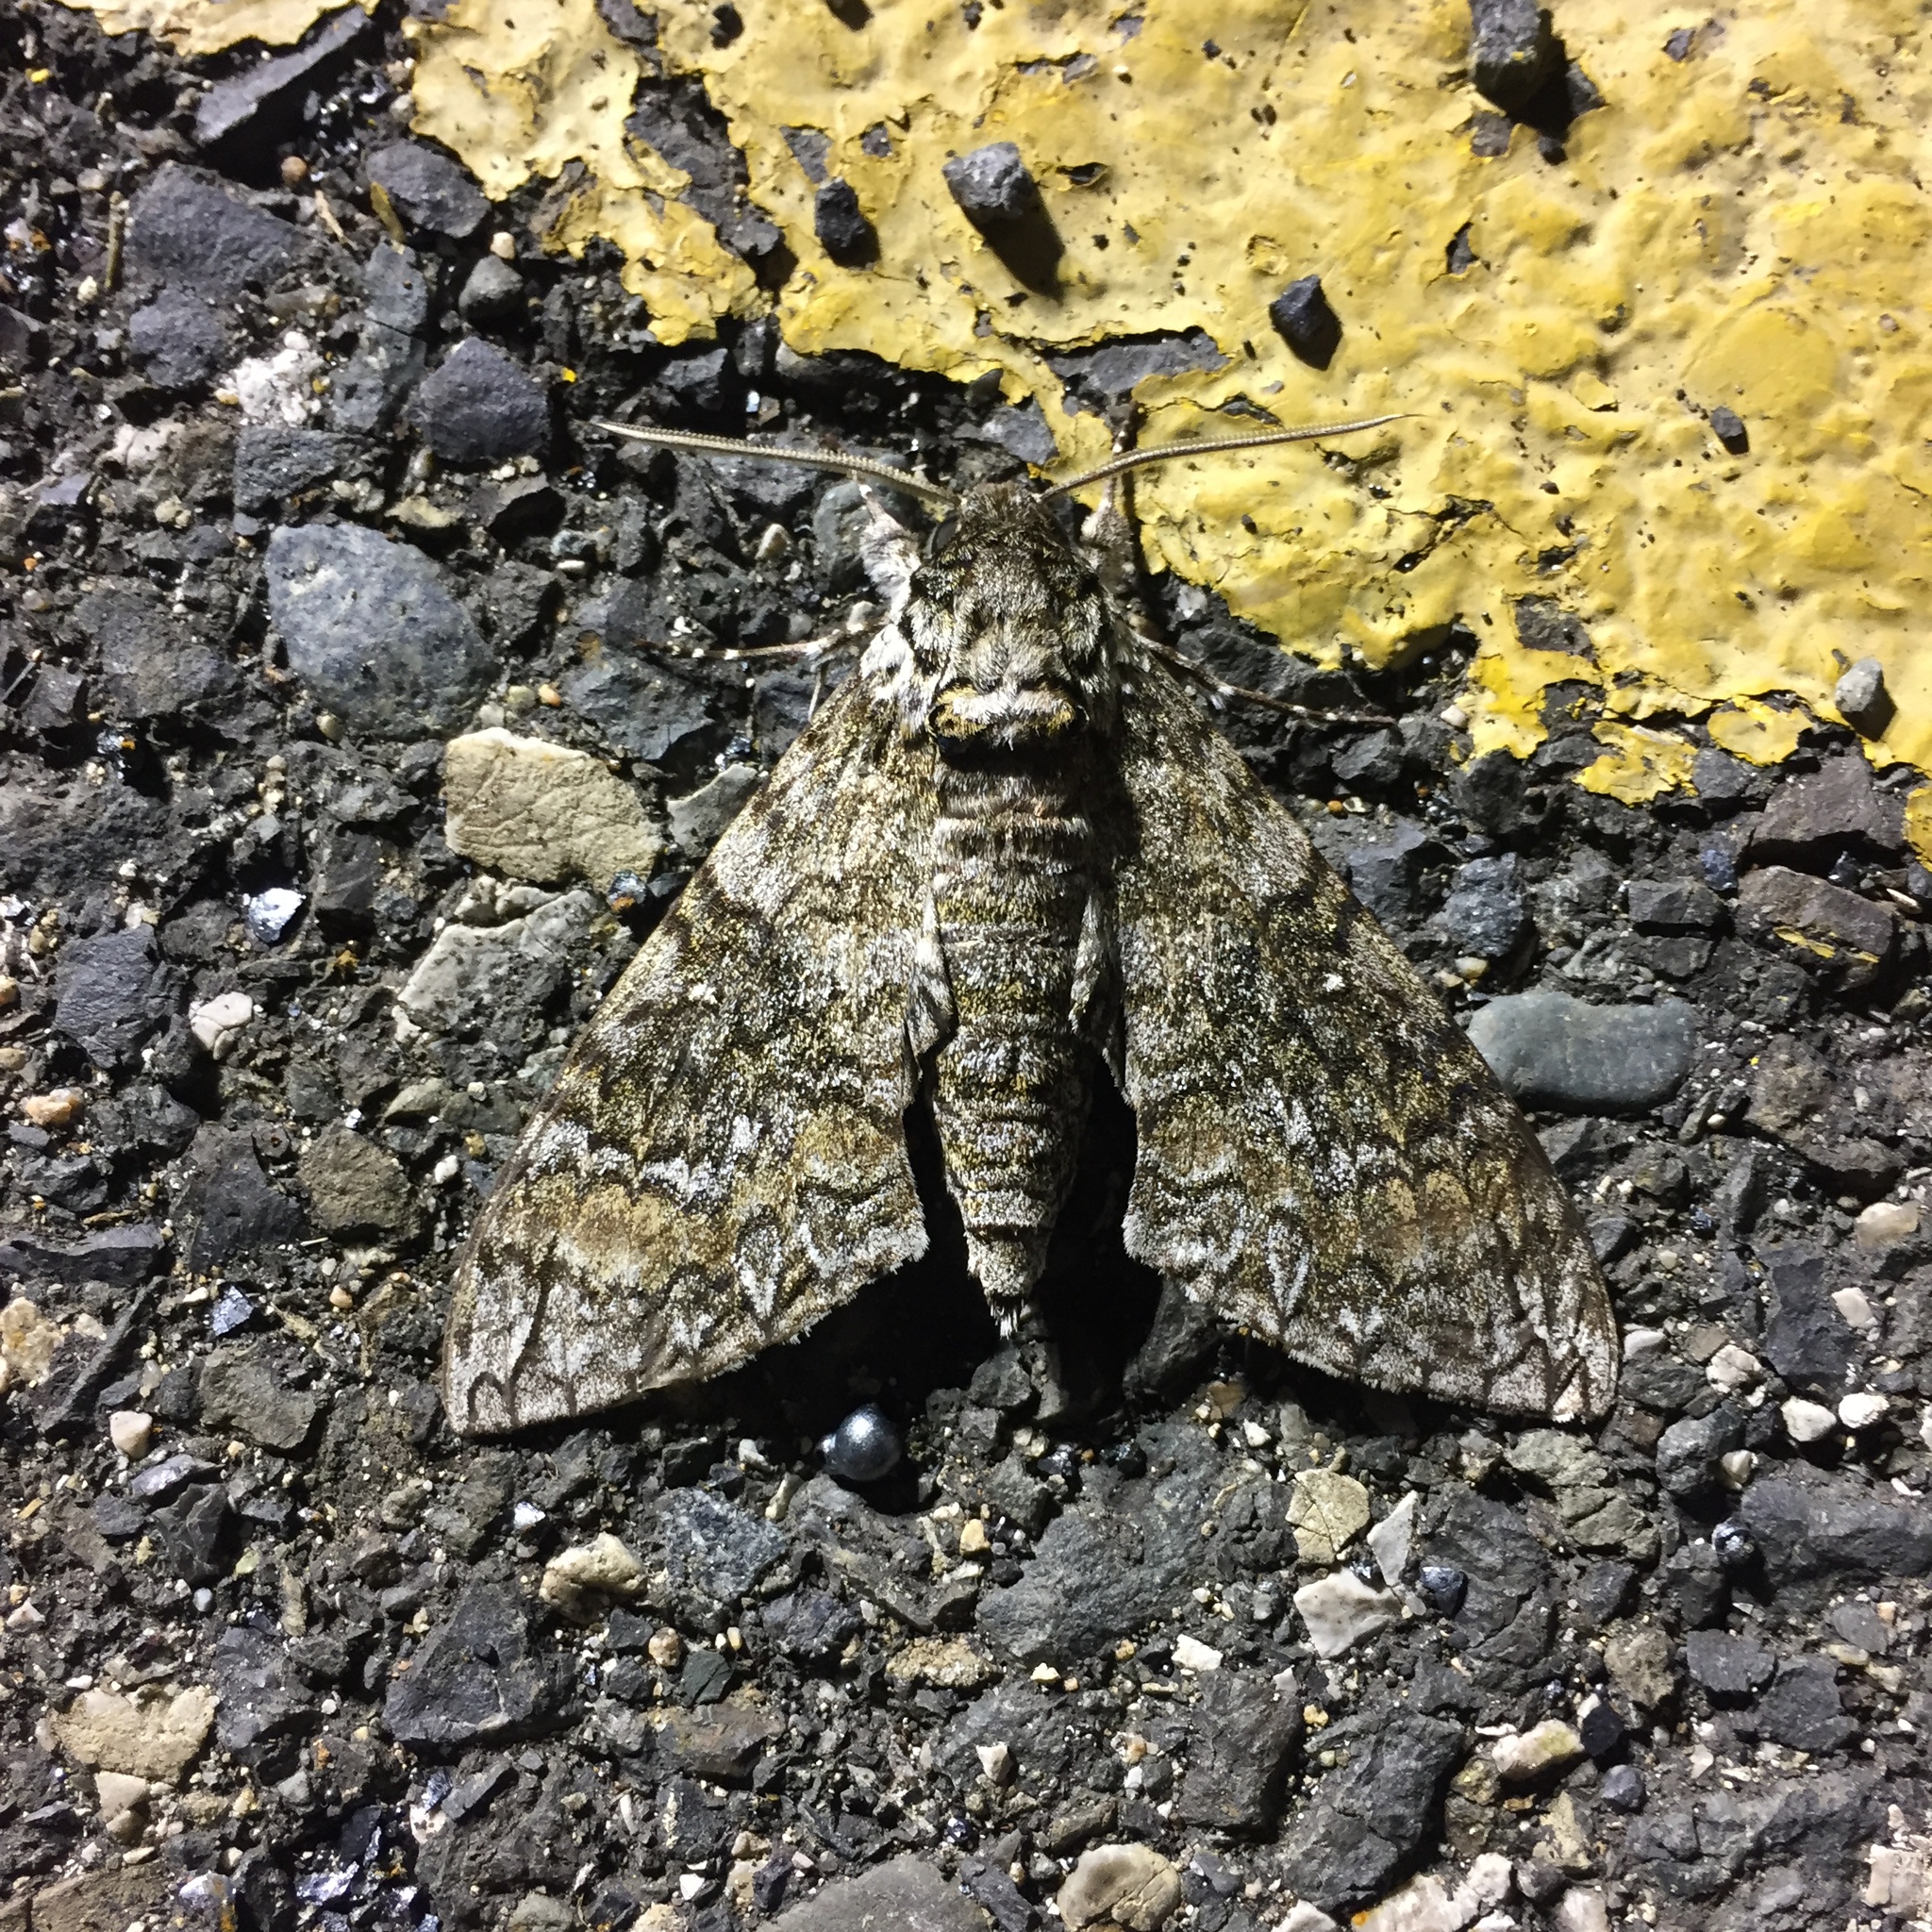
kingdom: Animalia
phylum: Arthropoda
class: Insecta
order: Lepidoptera
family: Sphingidae
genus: Manduca
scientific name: Manduca brontes
